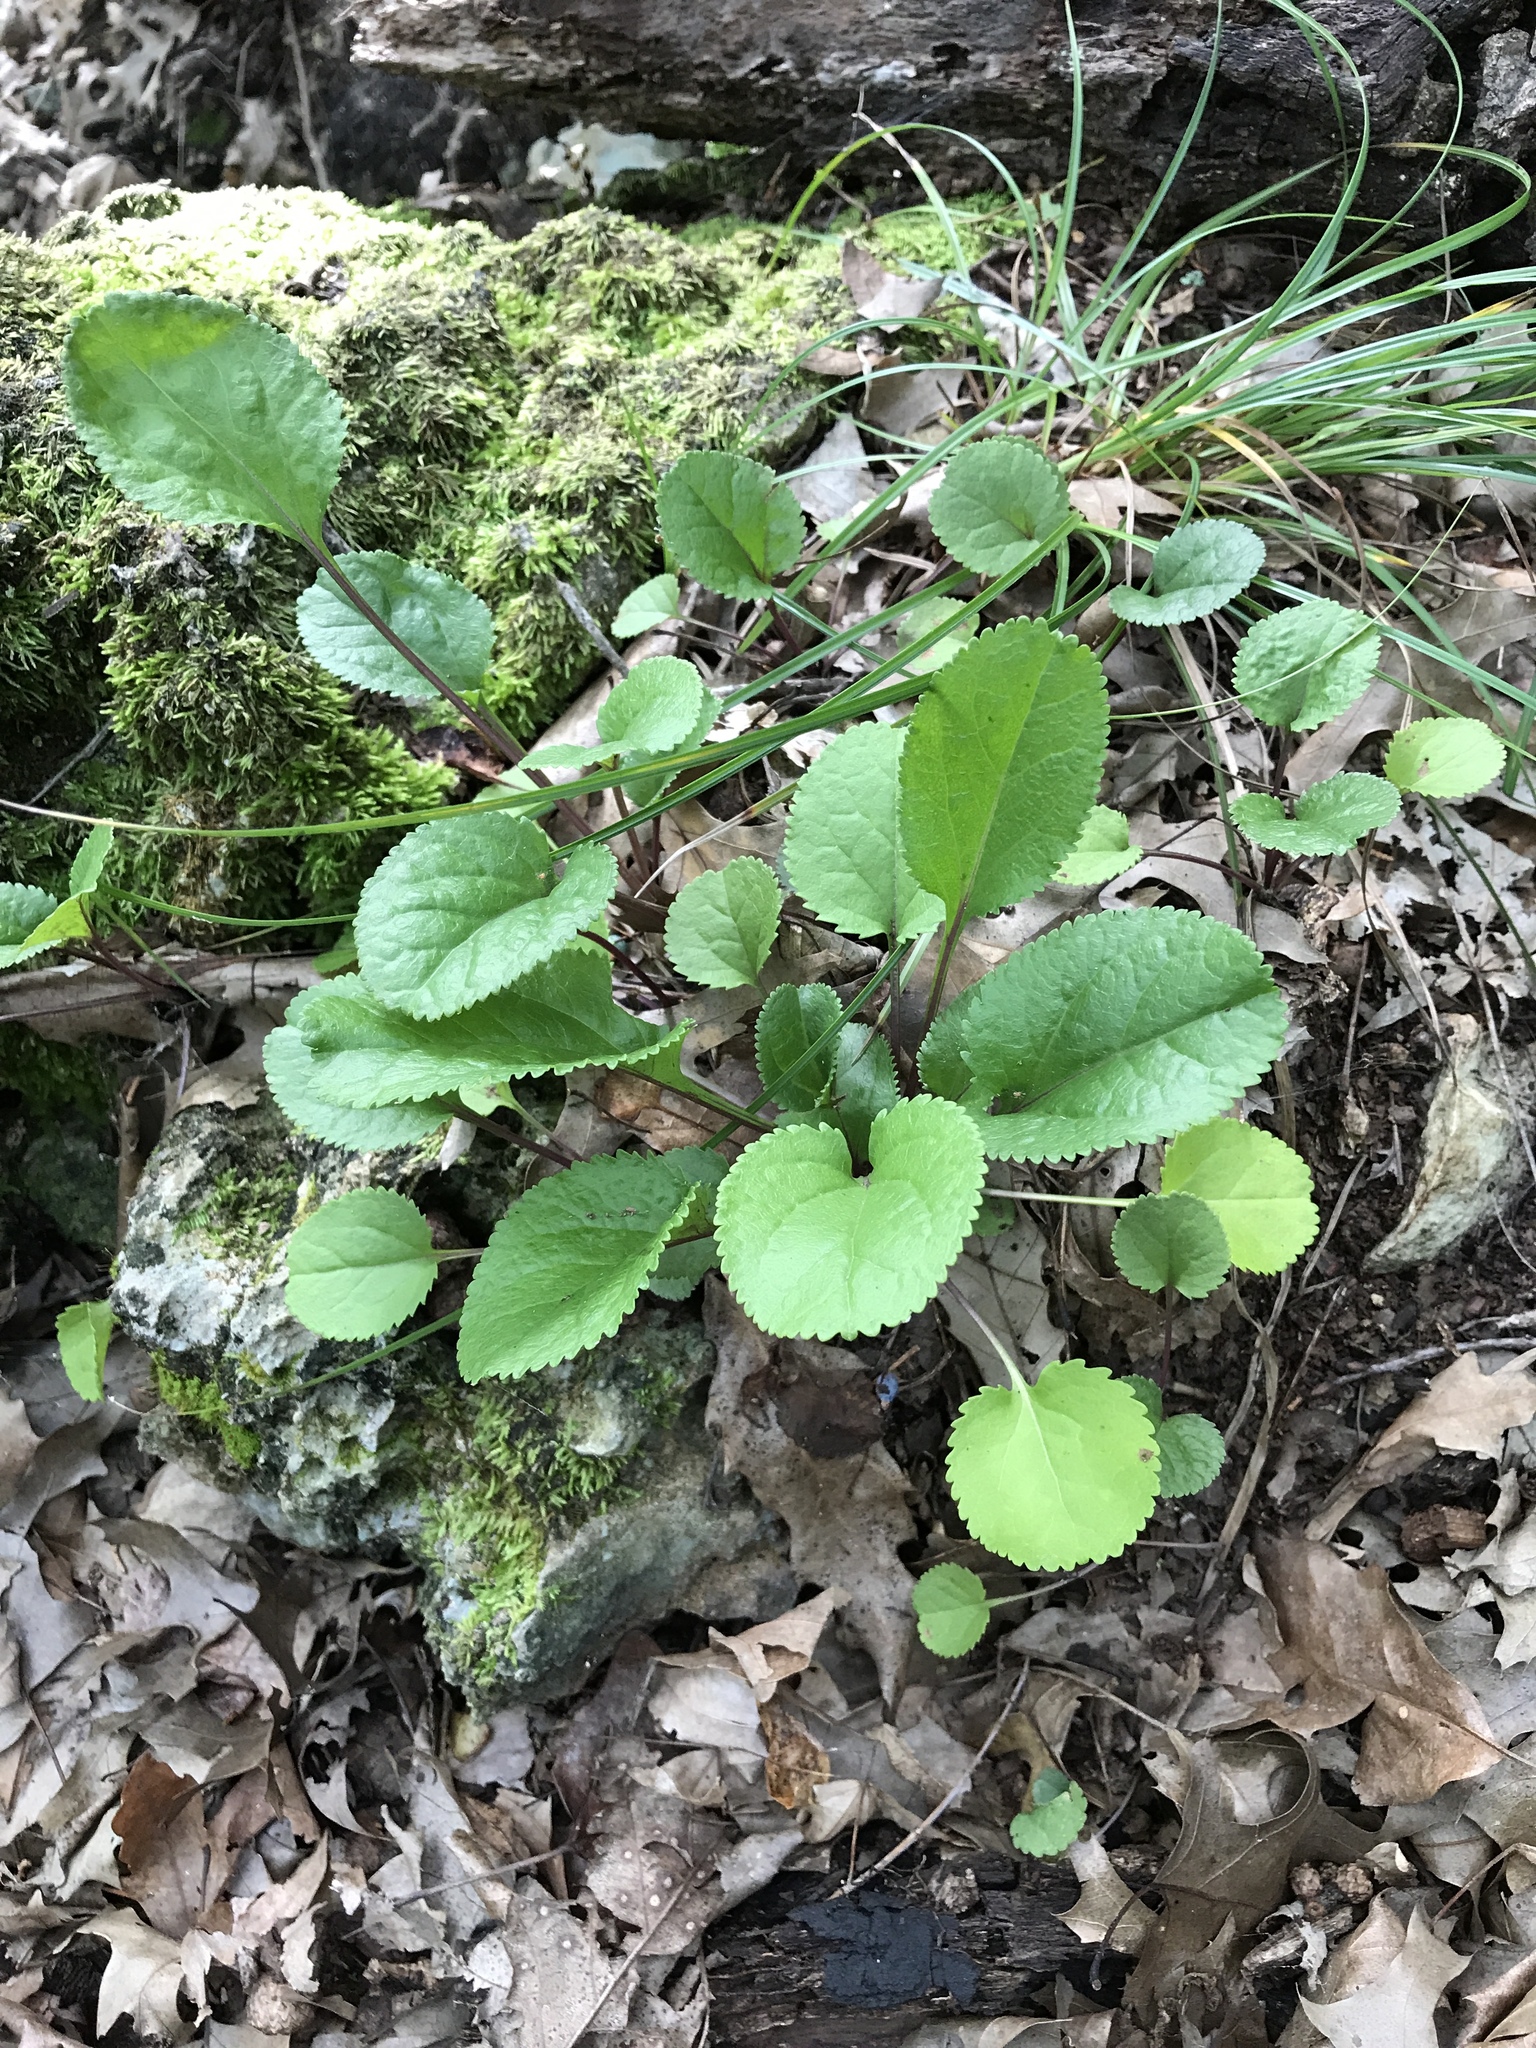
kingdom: Plantae
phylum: Tracheophyta
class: Magnoliopsida
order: Asterales
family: Asteraceae
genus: Packera
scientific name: Packera obovata
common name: Round-leaf ragwort
